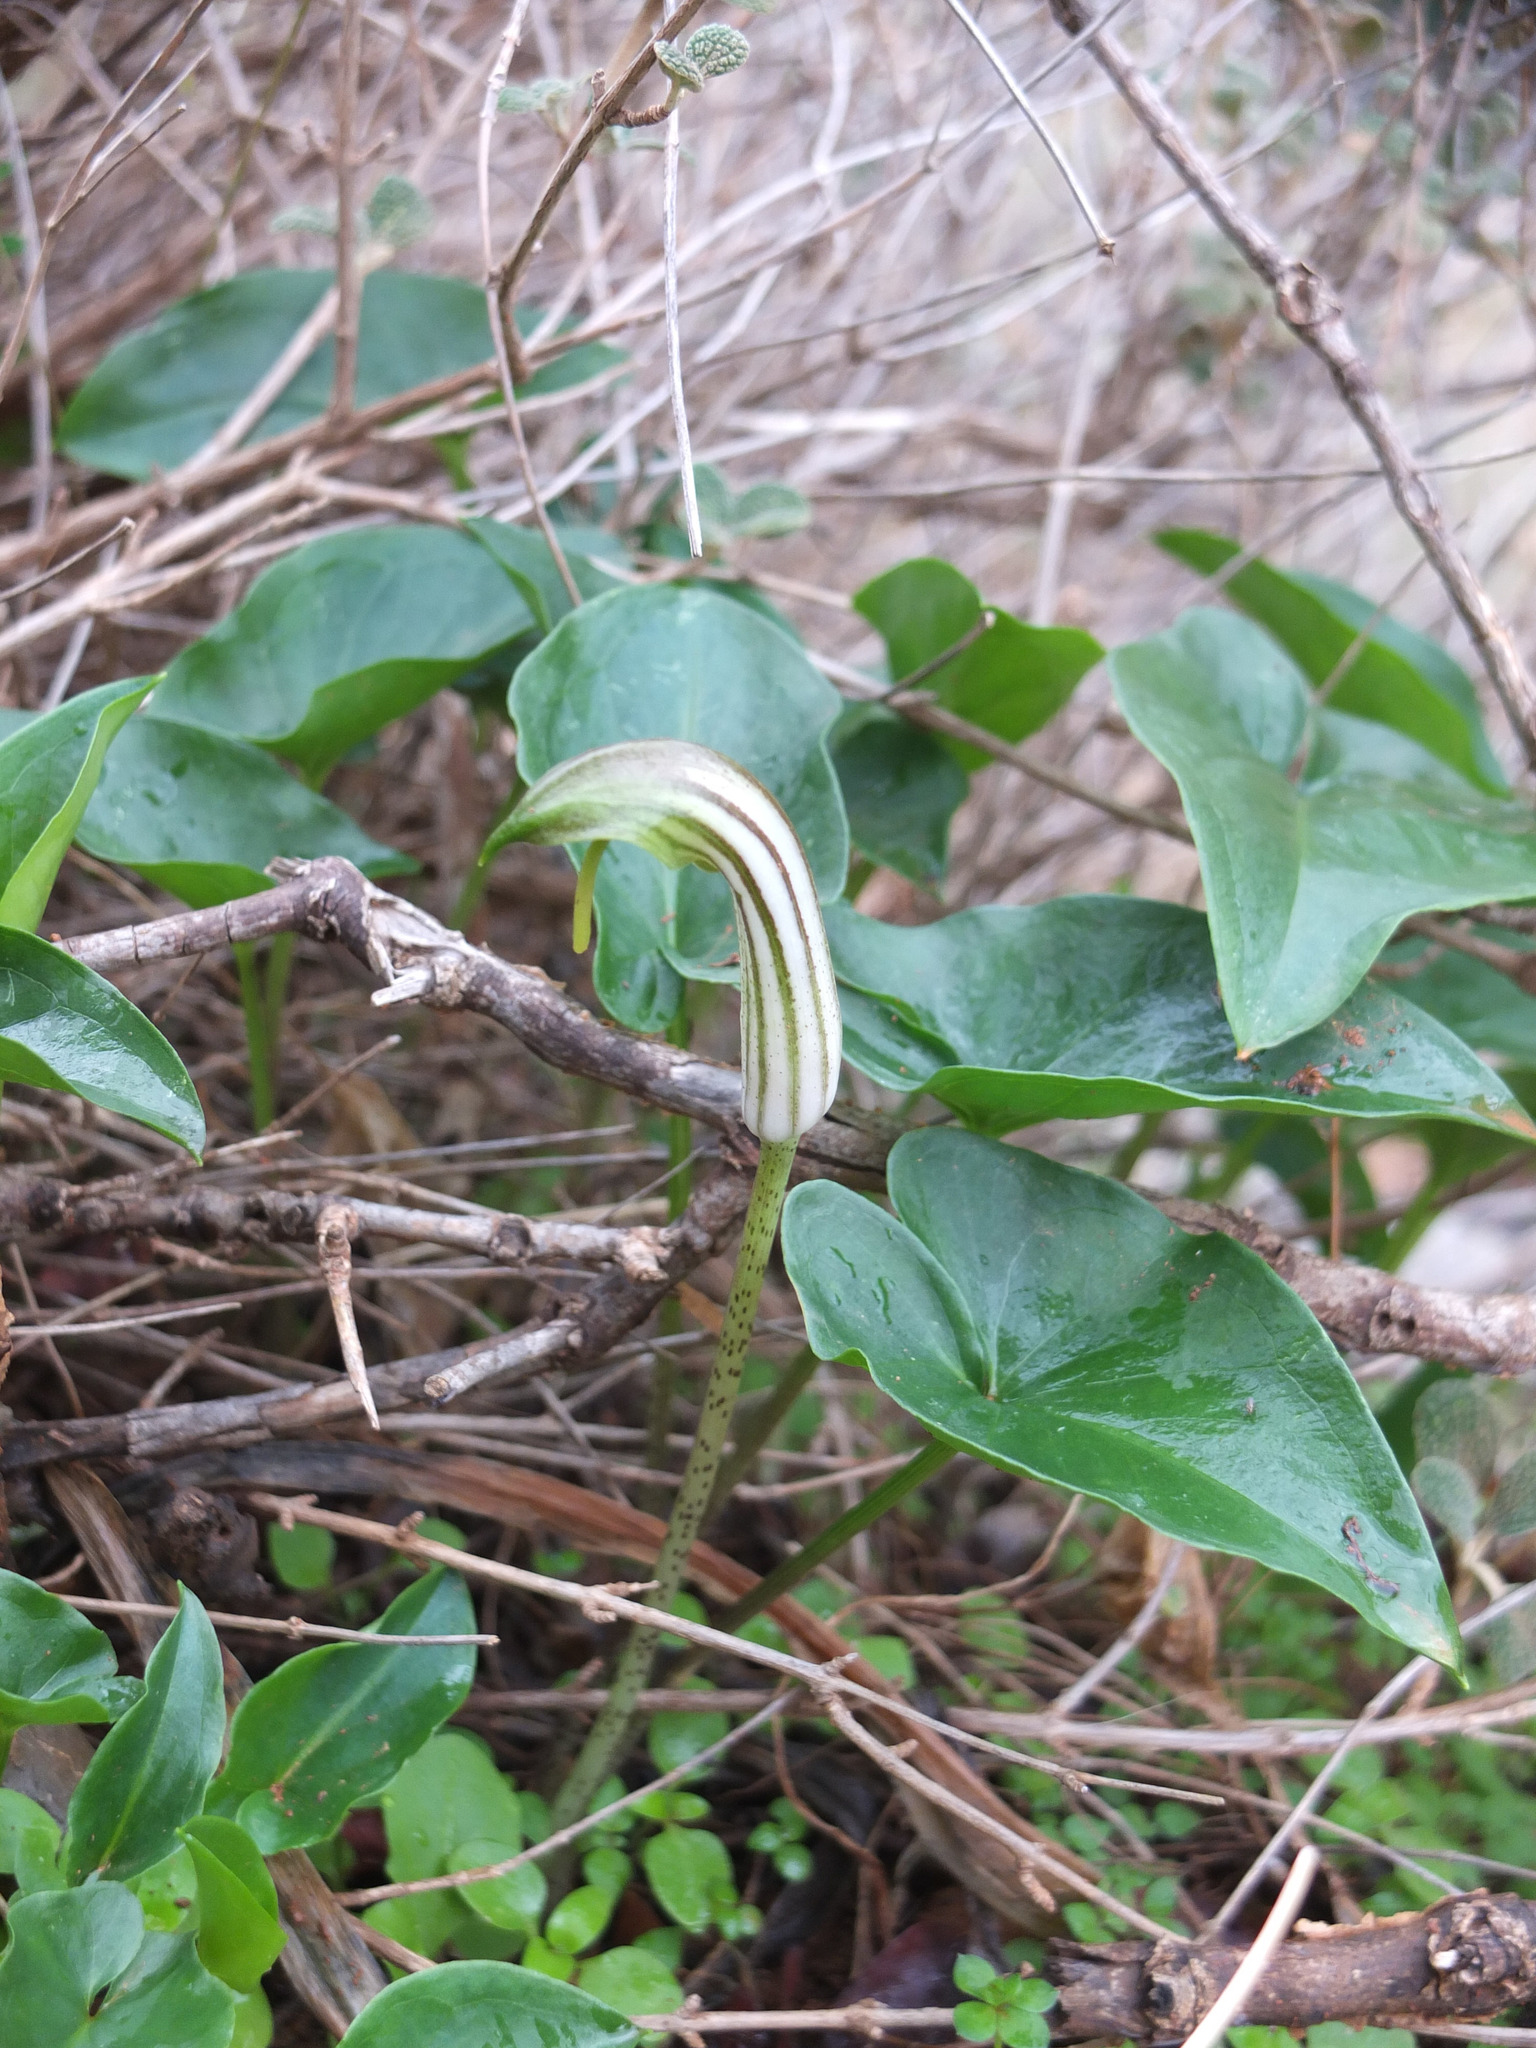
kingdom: Plantae
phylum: Tracheophyta
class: Liliopsida
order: Alismatales
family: Araceae
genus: Arisarum
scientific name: Arisarum vulgare
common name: Common arisarum
